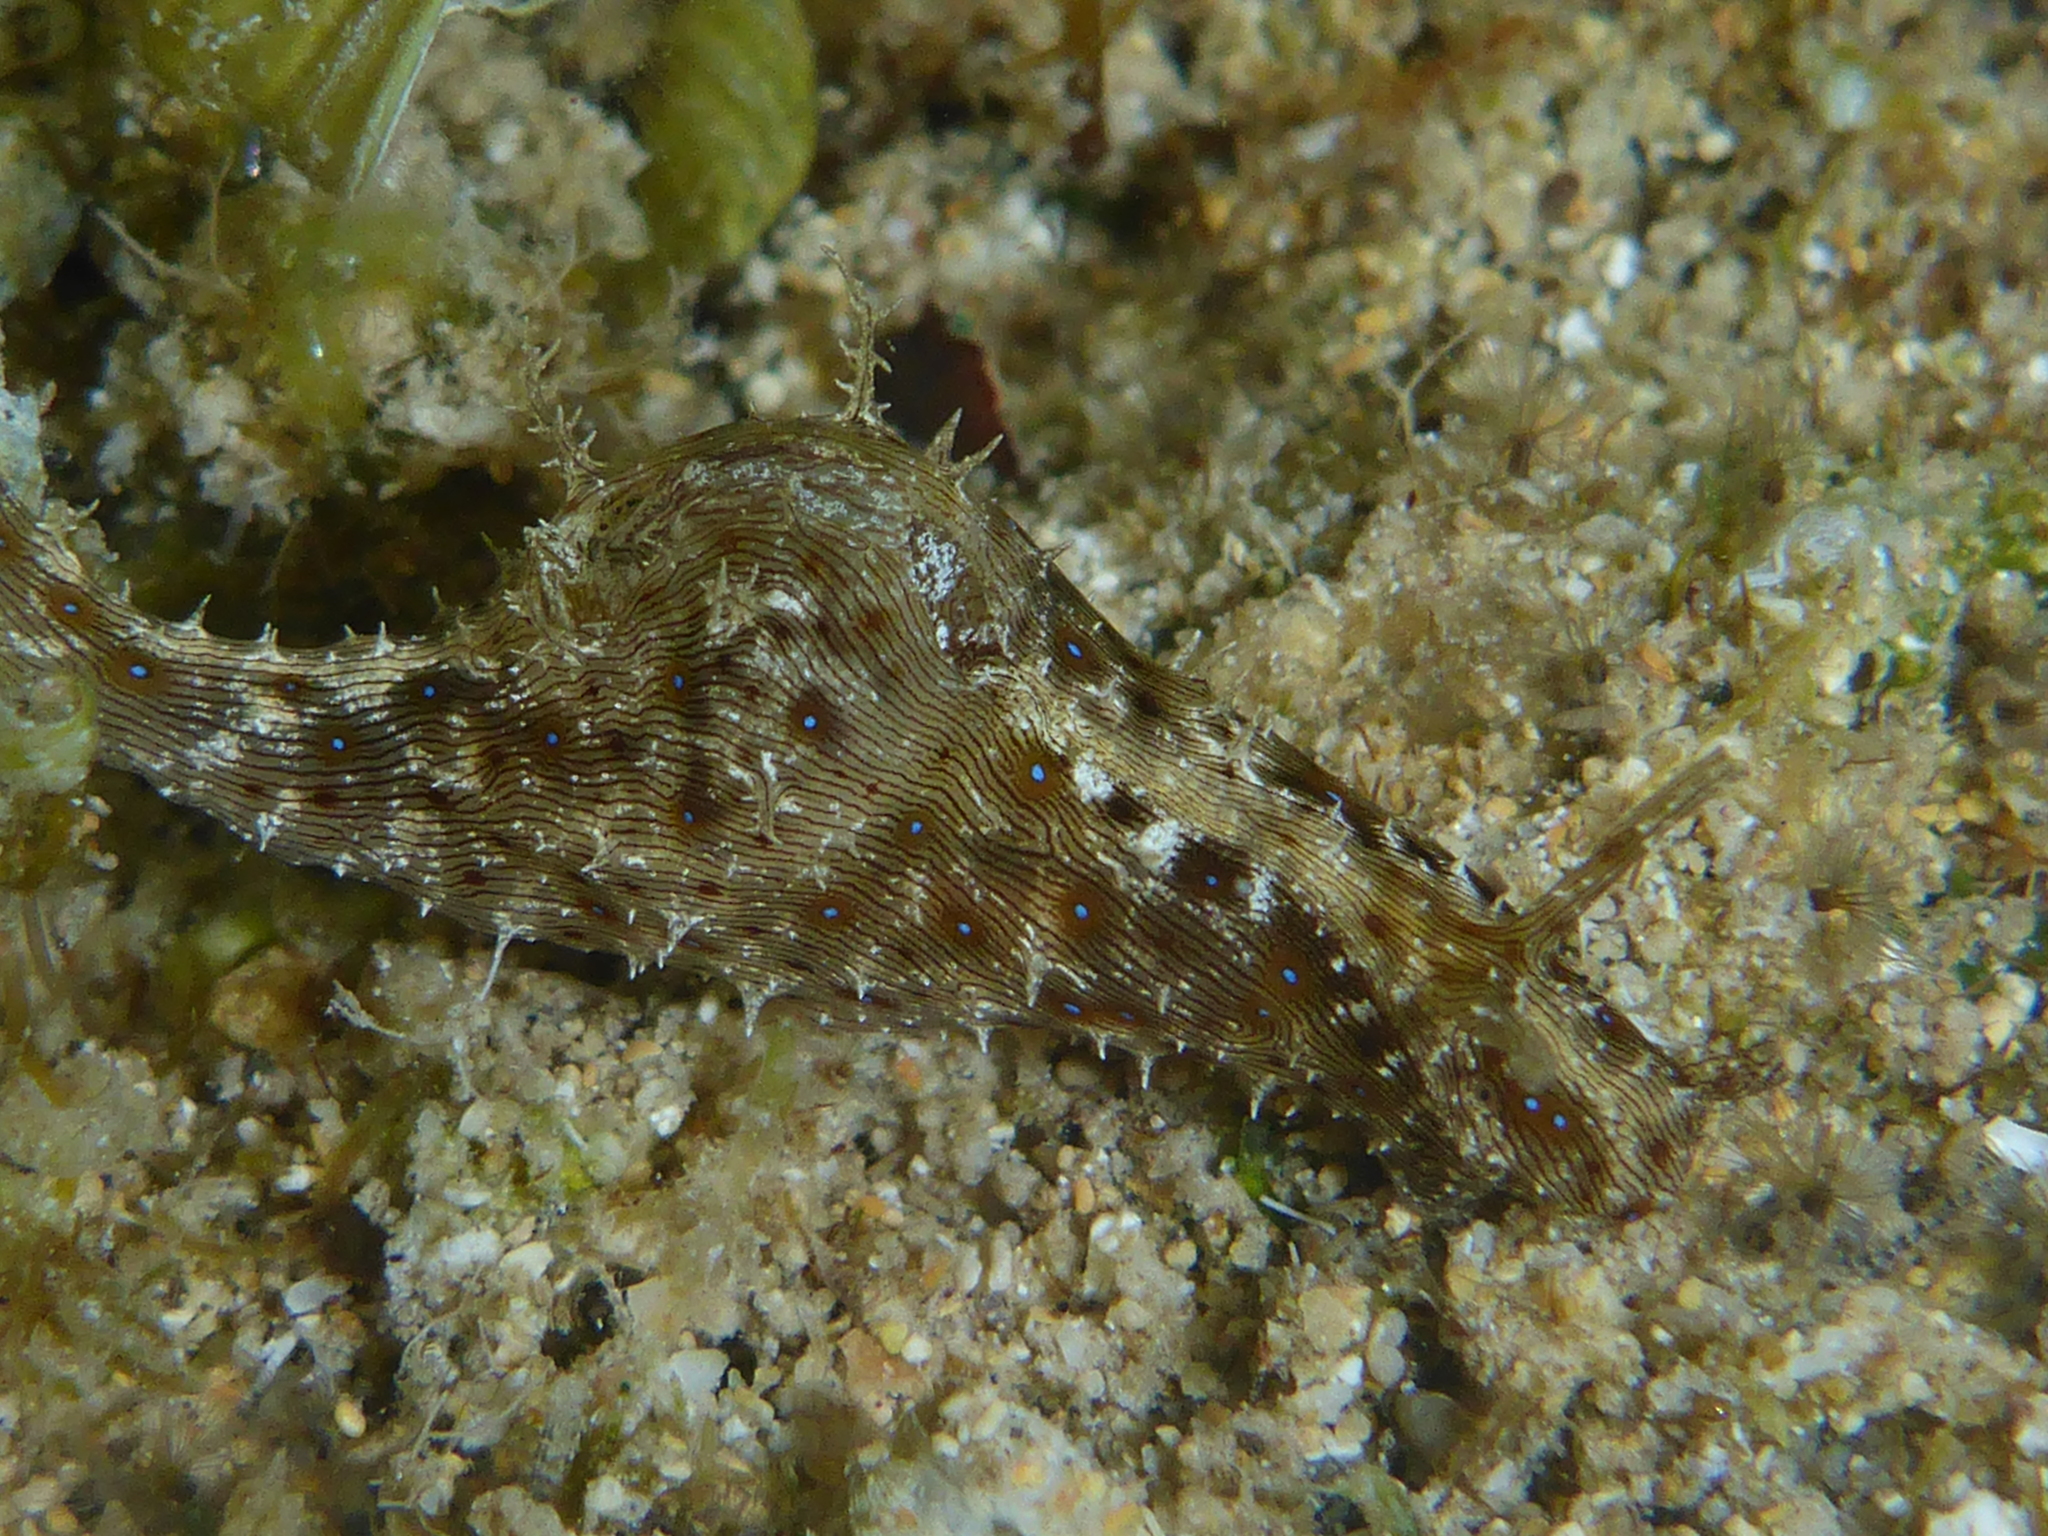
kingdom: Animalia
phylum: Mollusca
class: Gastropoda
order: Aplysiida
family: Aplysiidae
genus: Stylocheilus
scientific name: Stylocheilus striatus
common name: Striated seahare
